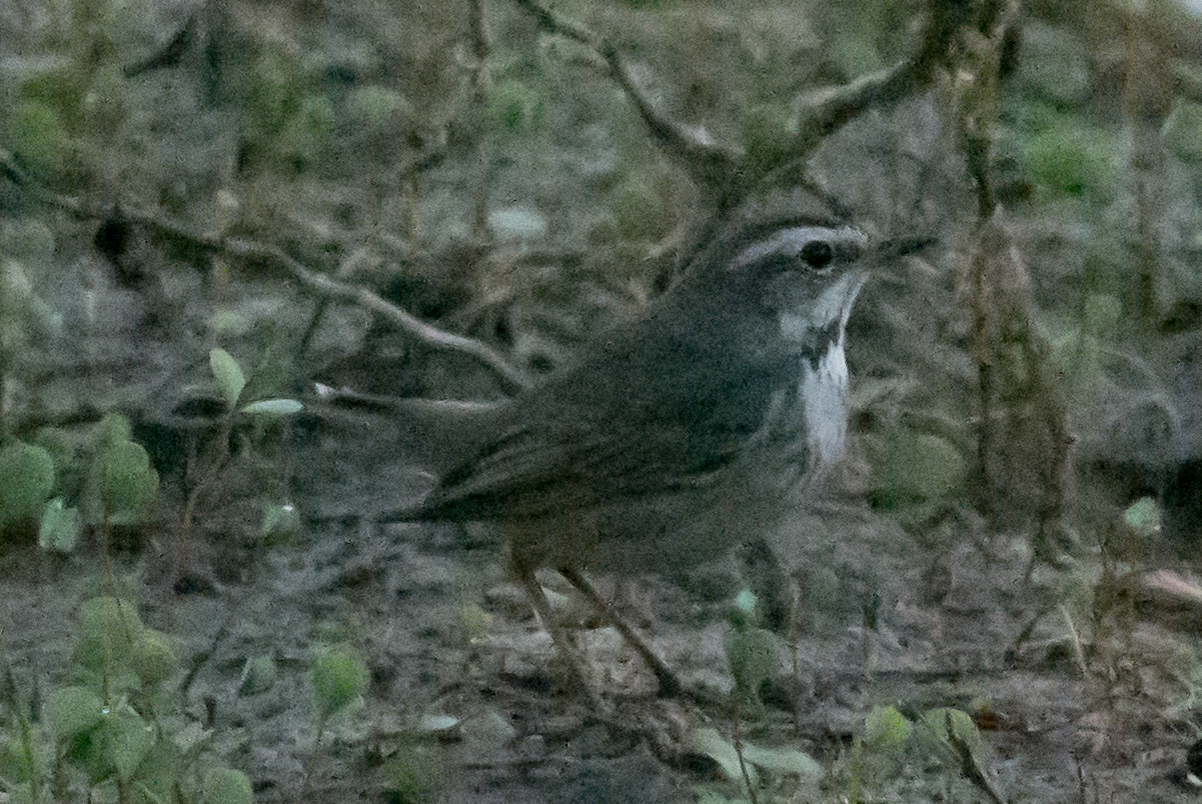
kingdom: Animalia
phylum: Chordata
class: Aves
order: Passeriformes
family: Muscicapidae
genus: Luscinia
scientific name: Luscinia svecica
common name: Bluethroat
